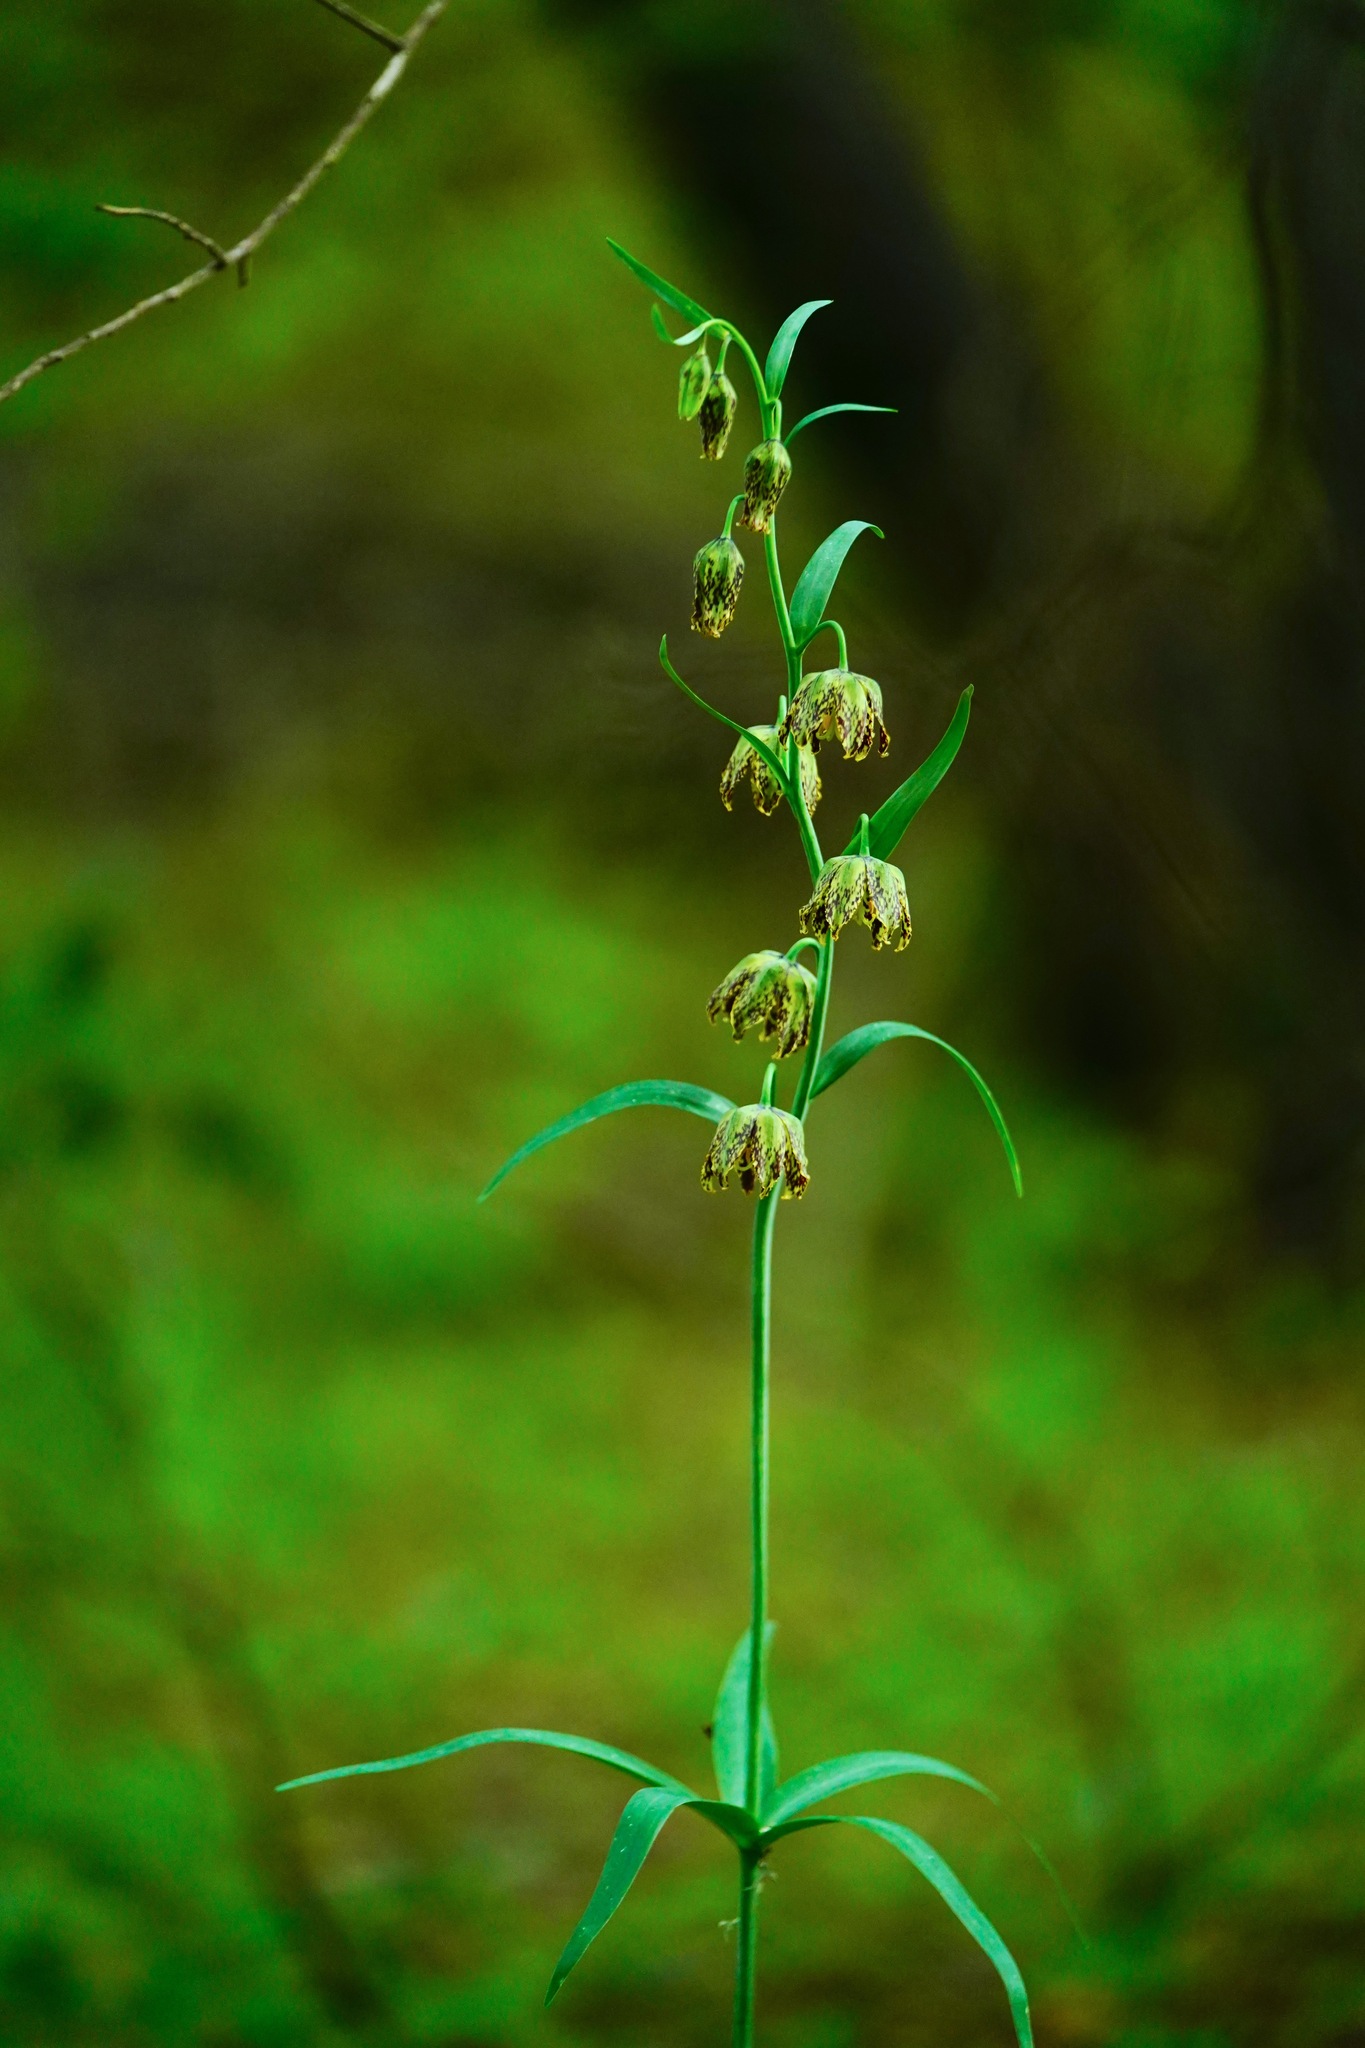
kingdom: Plantae
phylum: Tracheophyta
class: Liliopsida
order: Liliales
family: Liliaceae
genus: Fritillaria
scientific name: Fritillaria affinis
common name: Ojai fritillary
